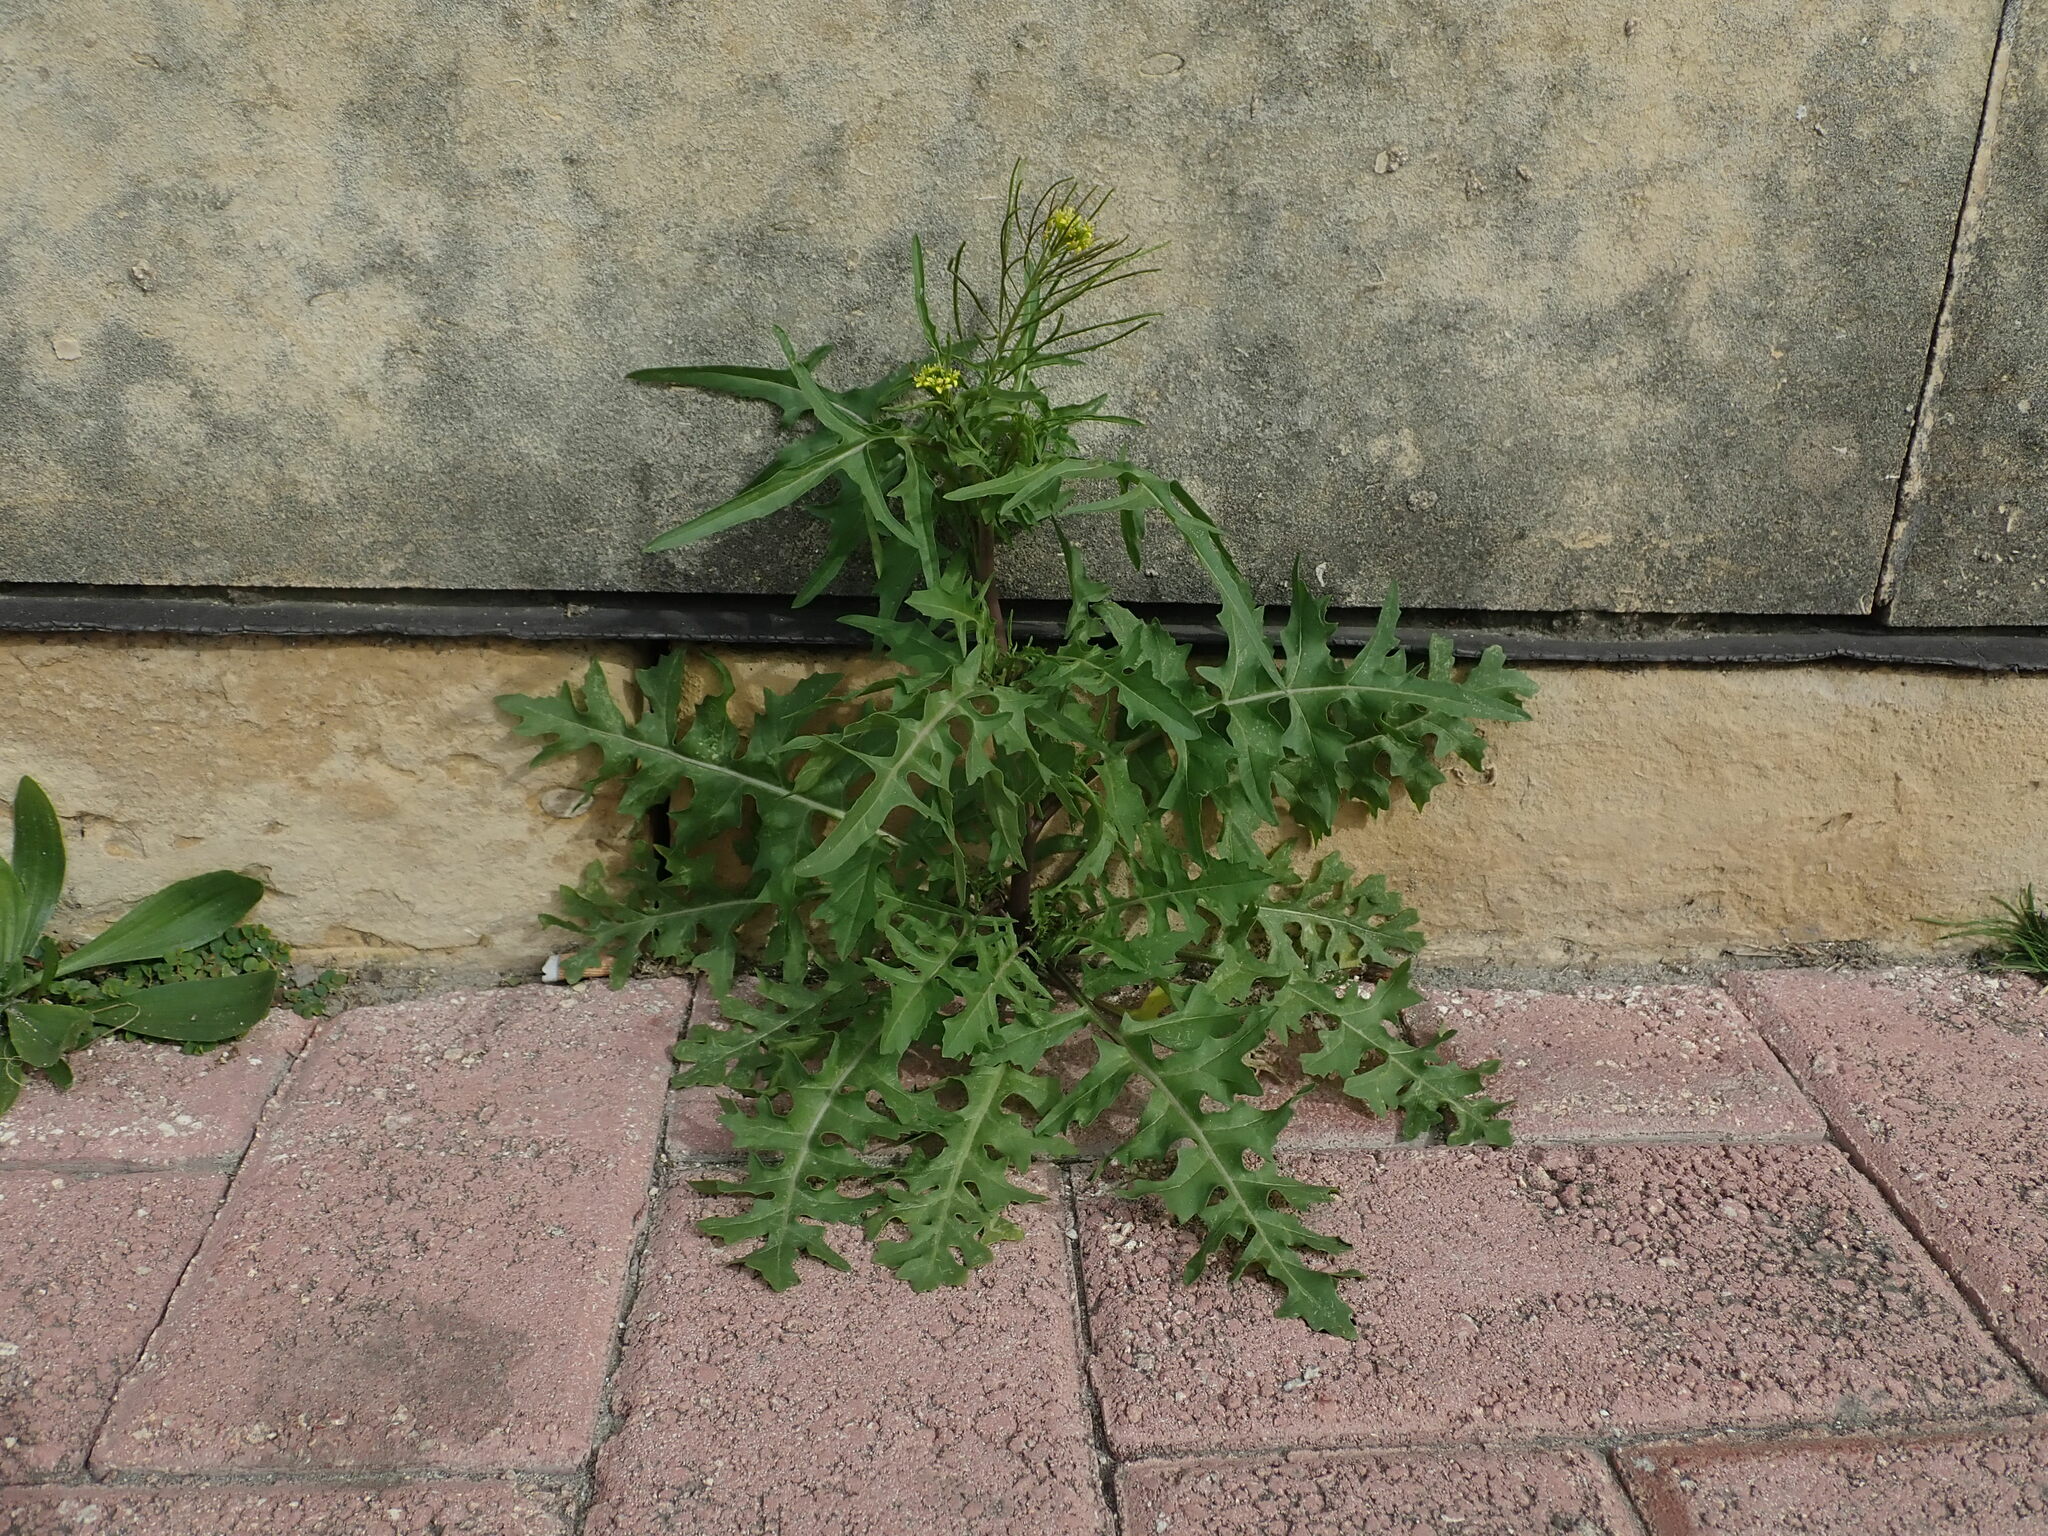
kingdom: Plantae
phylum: Tracheophyta
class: Magnoliopsida
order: Brassicales
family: Brassicaceae
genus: Sisymbrium
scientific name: Sisymbrium irio
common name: London rocket
